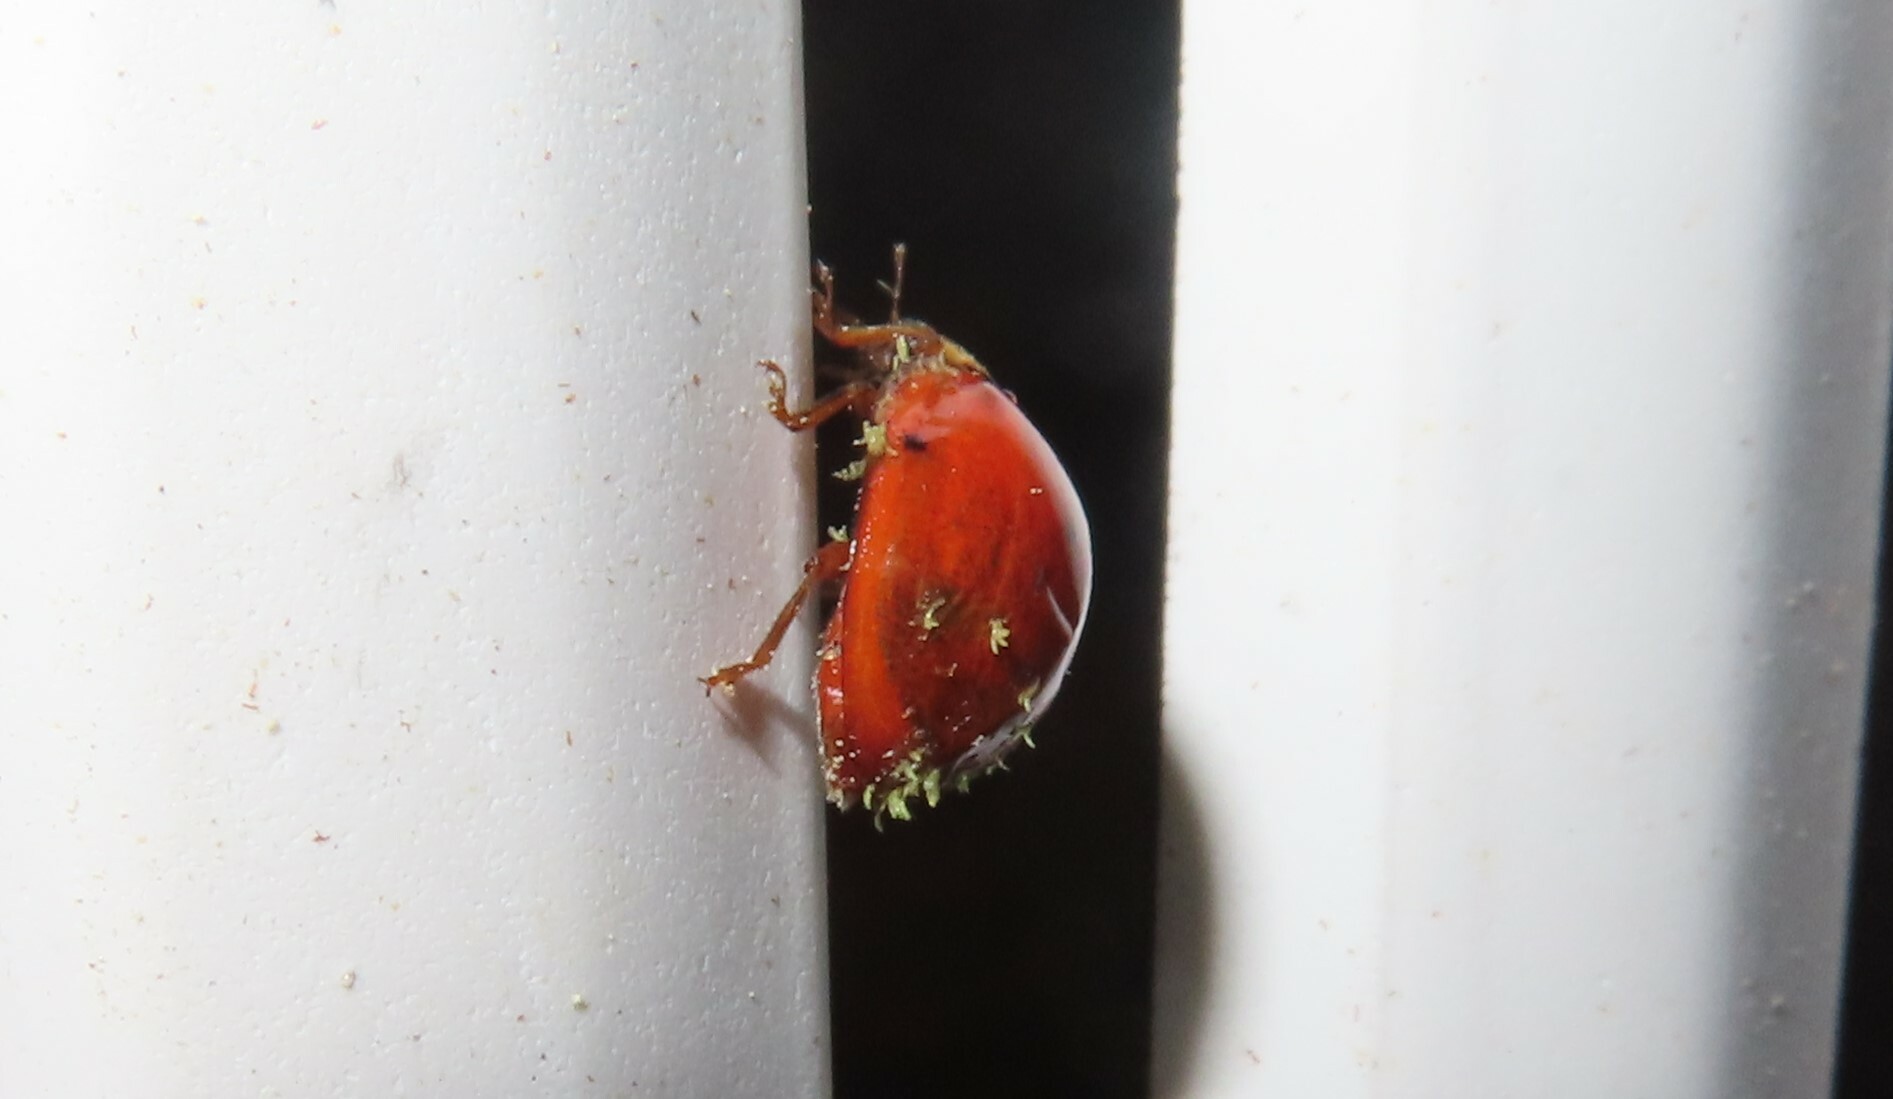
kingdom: Animalia
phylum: Arthropoda
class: Insecta
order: Coleoptera
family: Coccinellidae
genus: Harmonia
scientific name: Harmonia axyridis
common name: Harlequin ladybird
